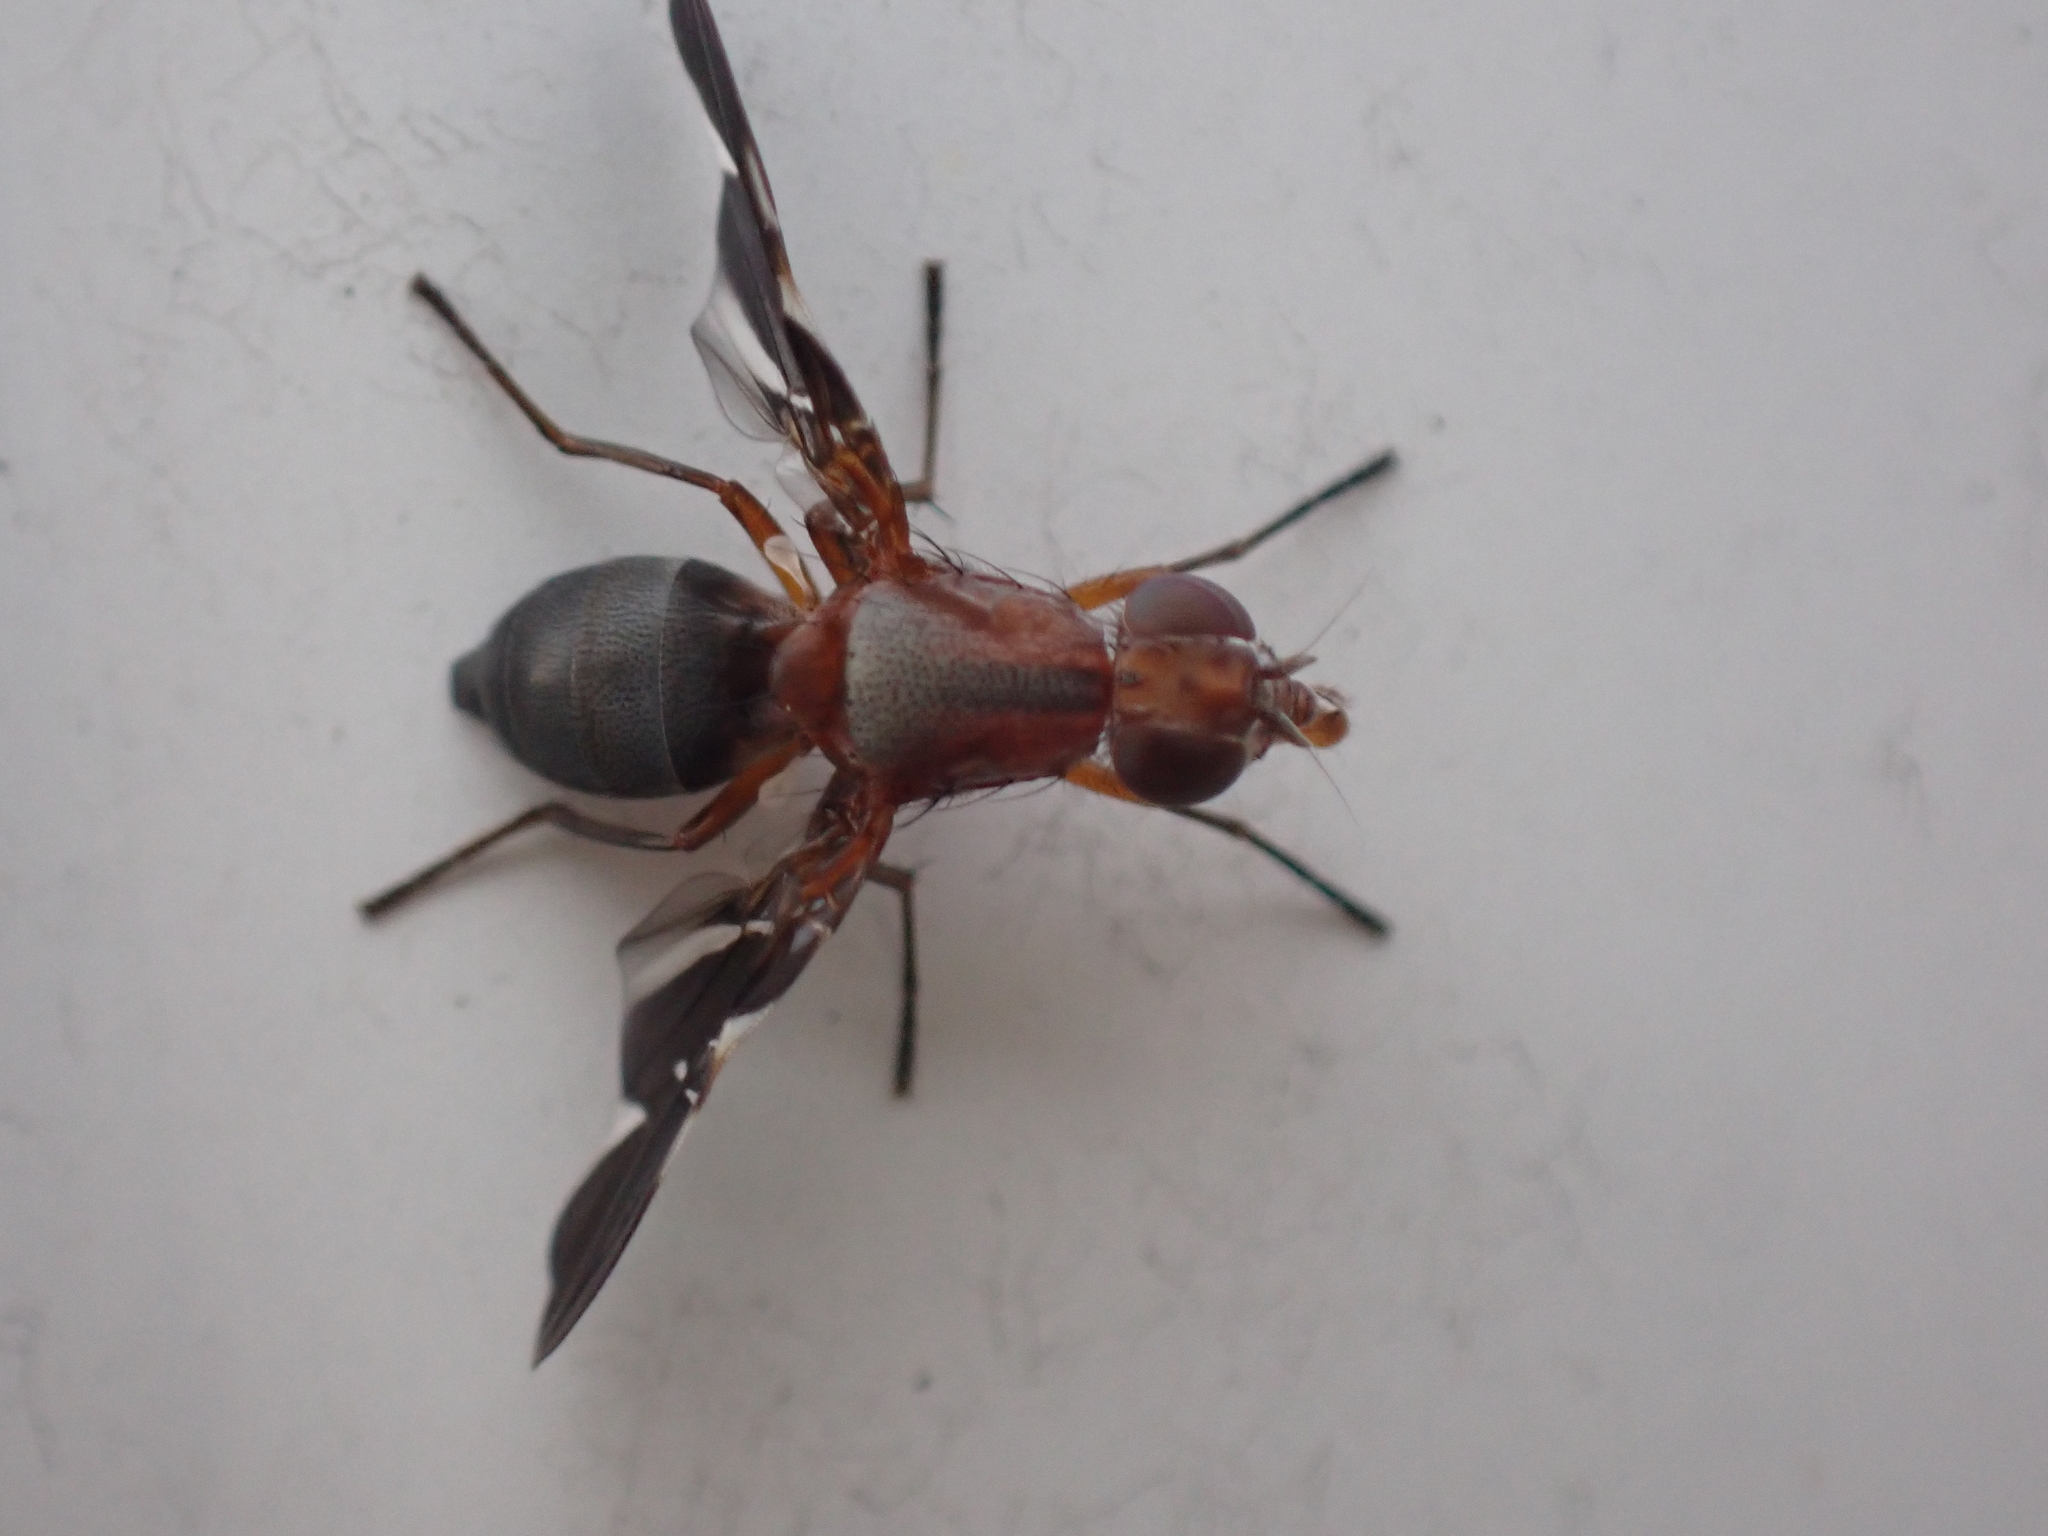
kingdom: Animalia
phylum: Arthropoda
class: Insecta
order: Diptera
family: Ulidiidae
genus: Delphinia
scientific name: Delphinia picta
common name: Common picture-winged fly
